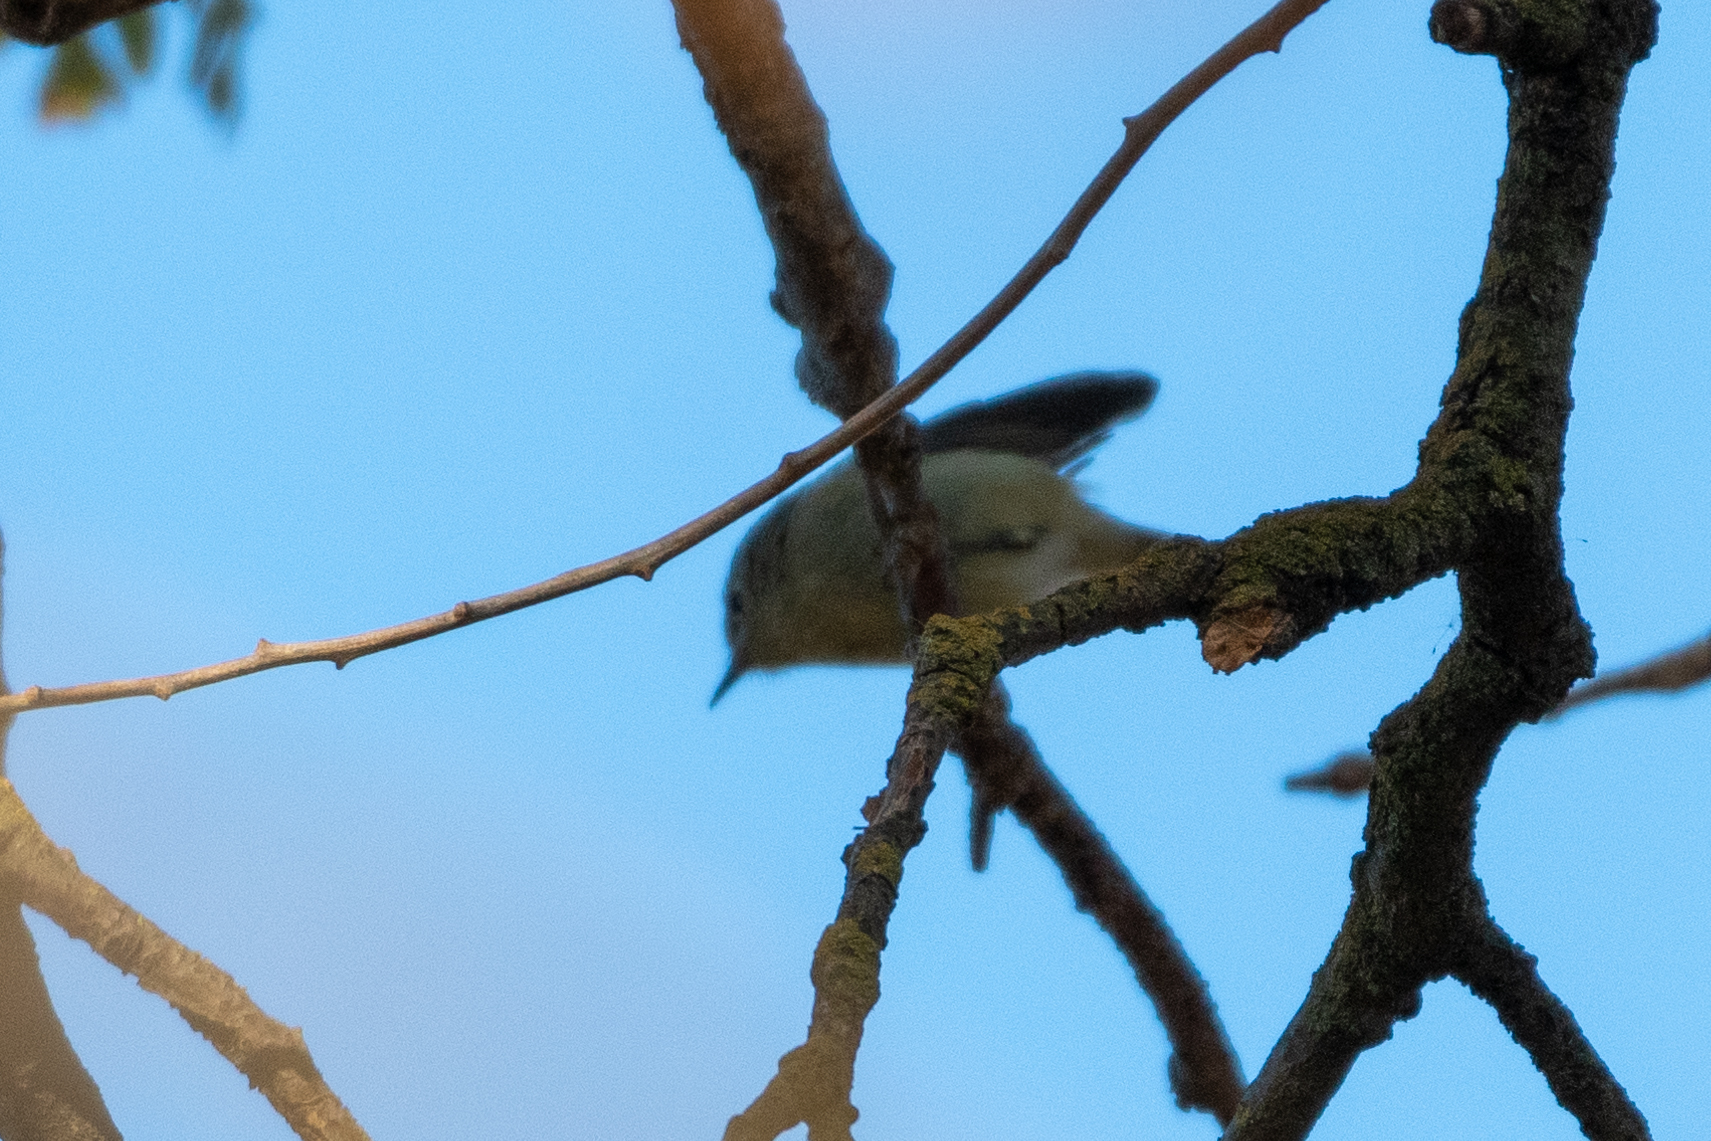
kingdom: Animalia
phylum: Chordata
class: Aves
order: Passeriformes
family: Regulidae
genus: Regulus
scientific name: Regulus calendula
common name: Ruby-crowned kinglet
